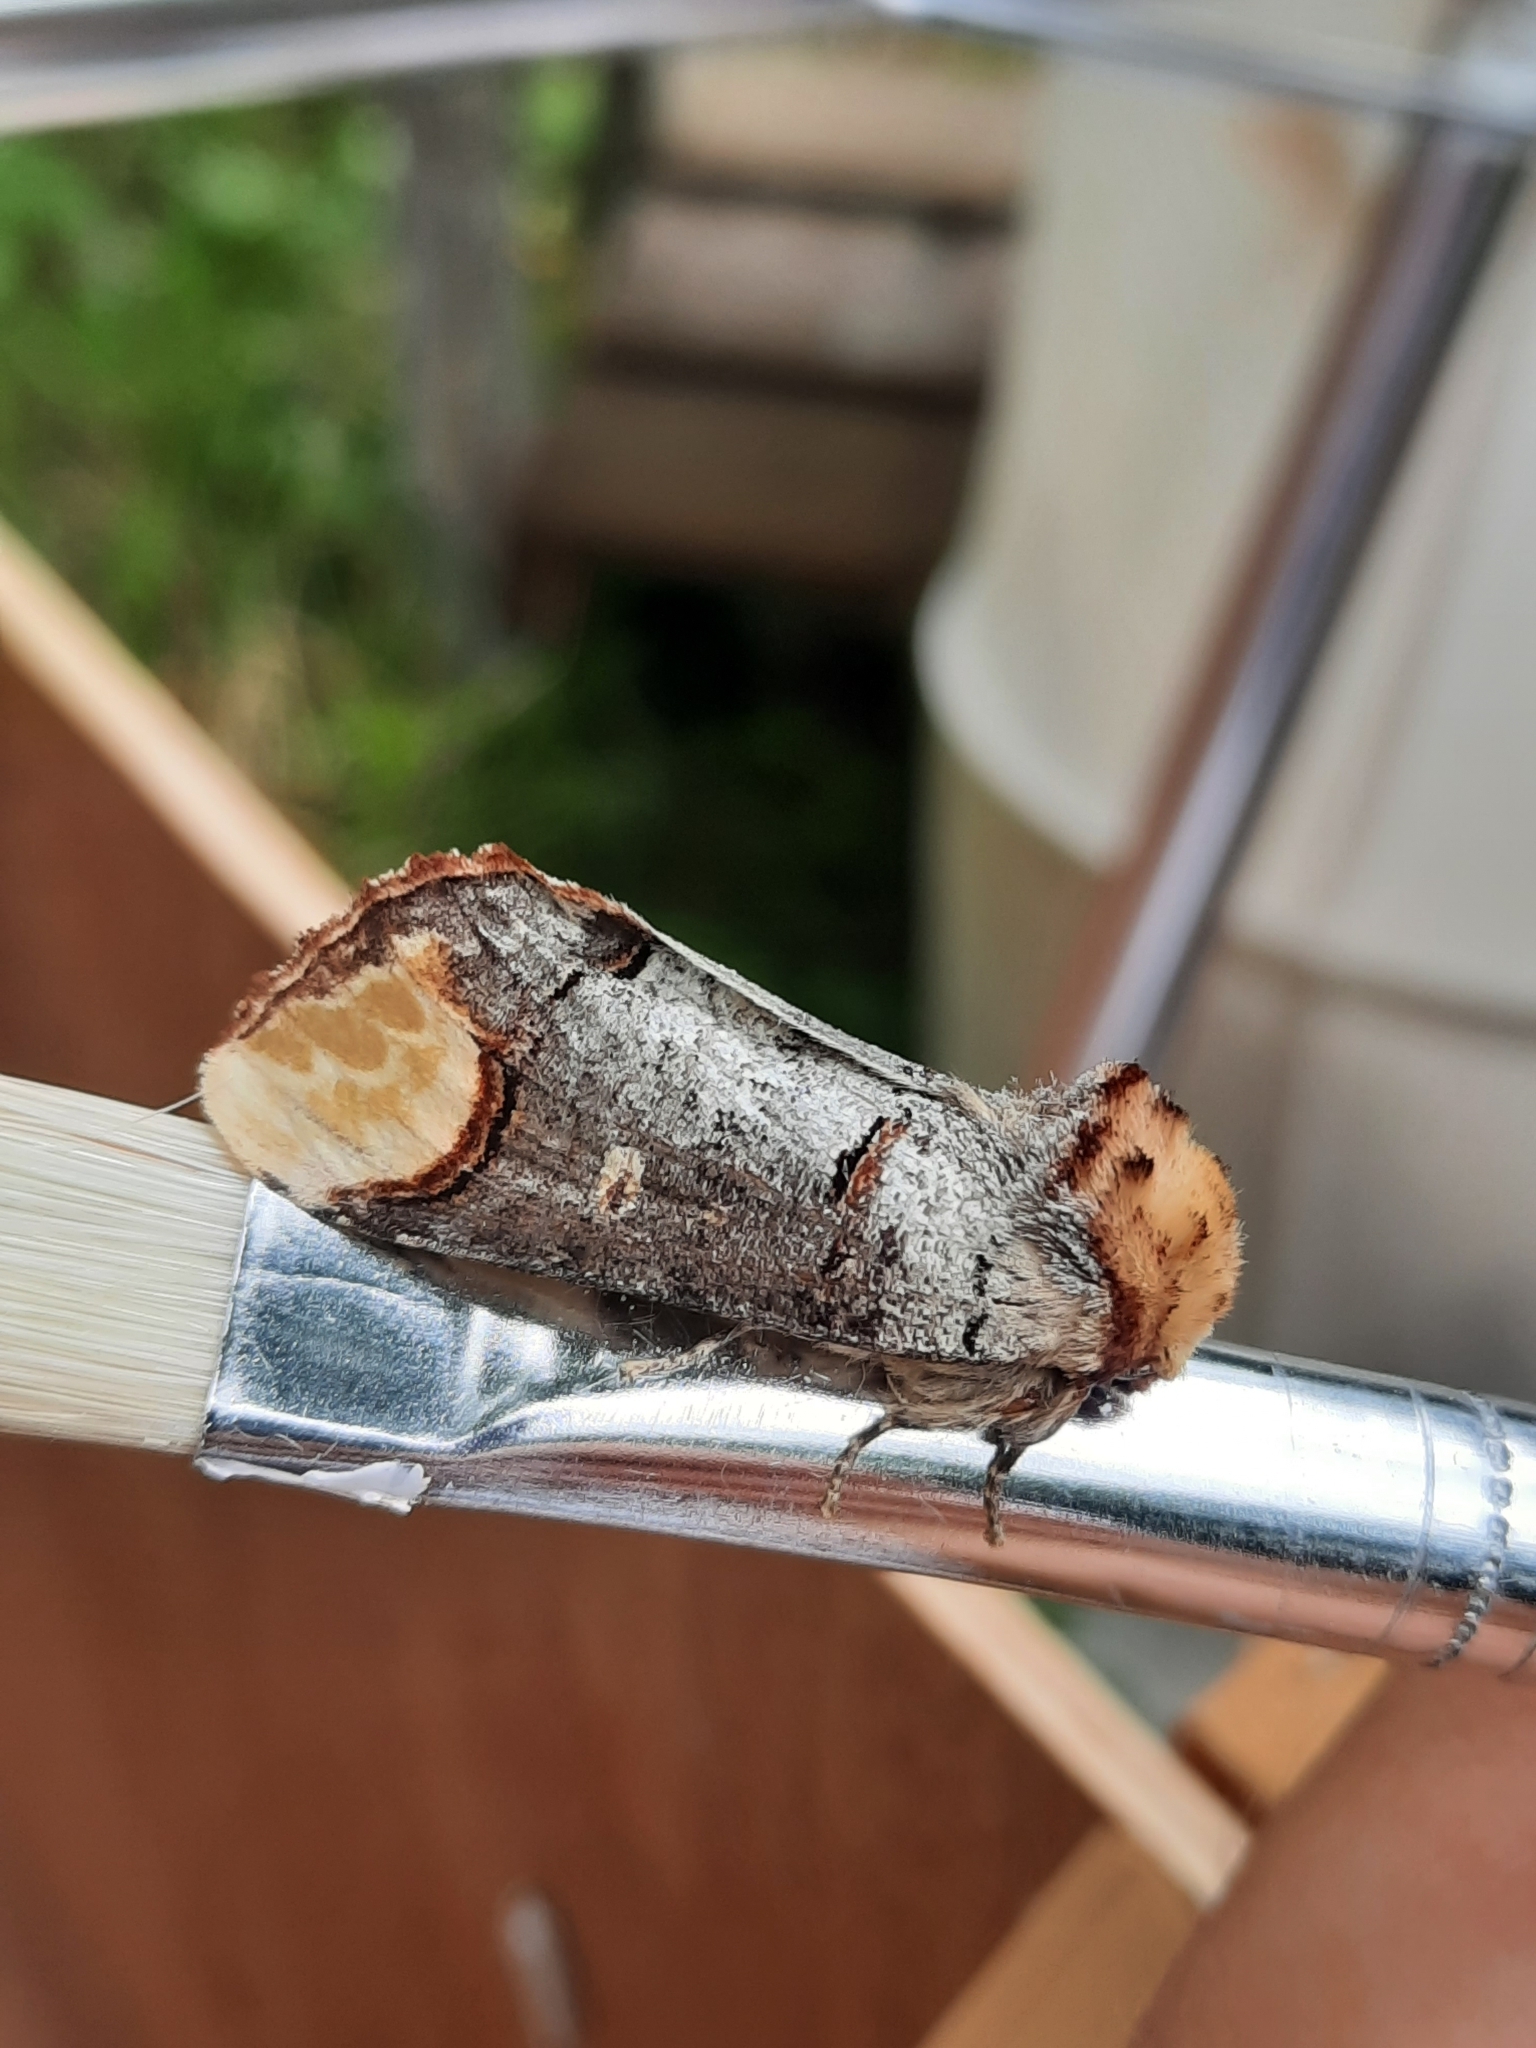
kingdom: Animalia
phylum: Arthropoda
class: Insecta
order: Lepidoptera
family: Notodontidae
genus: Phalera
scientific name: Phalera bucephala
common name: Buff-tip
